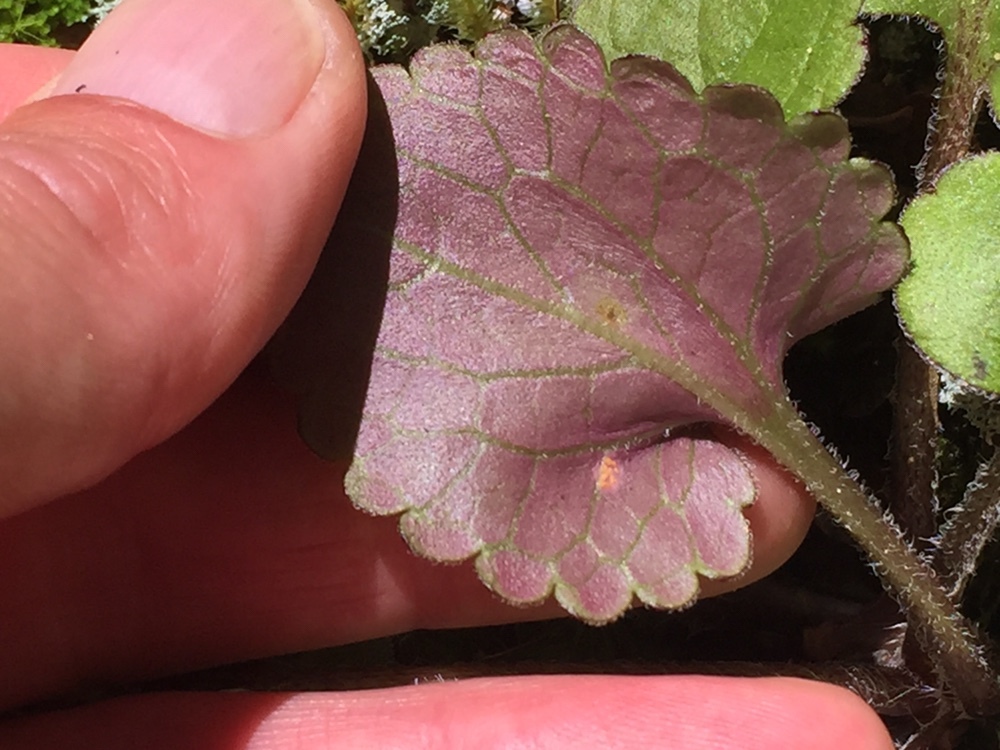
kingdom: Plantae
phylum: Tracheophyta
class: Magnoliopsida
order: Lamiales
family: Plantaginaceae
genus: Ourisia
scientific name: Ourisia macrophylla
